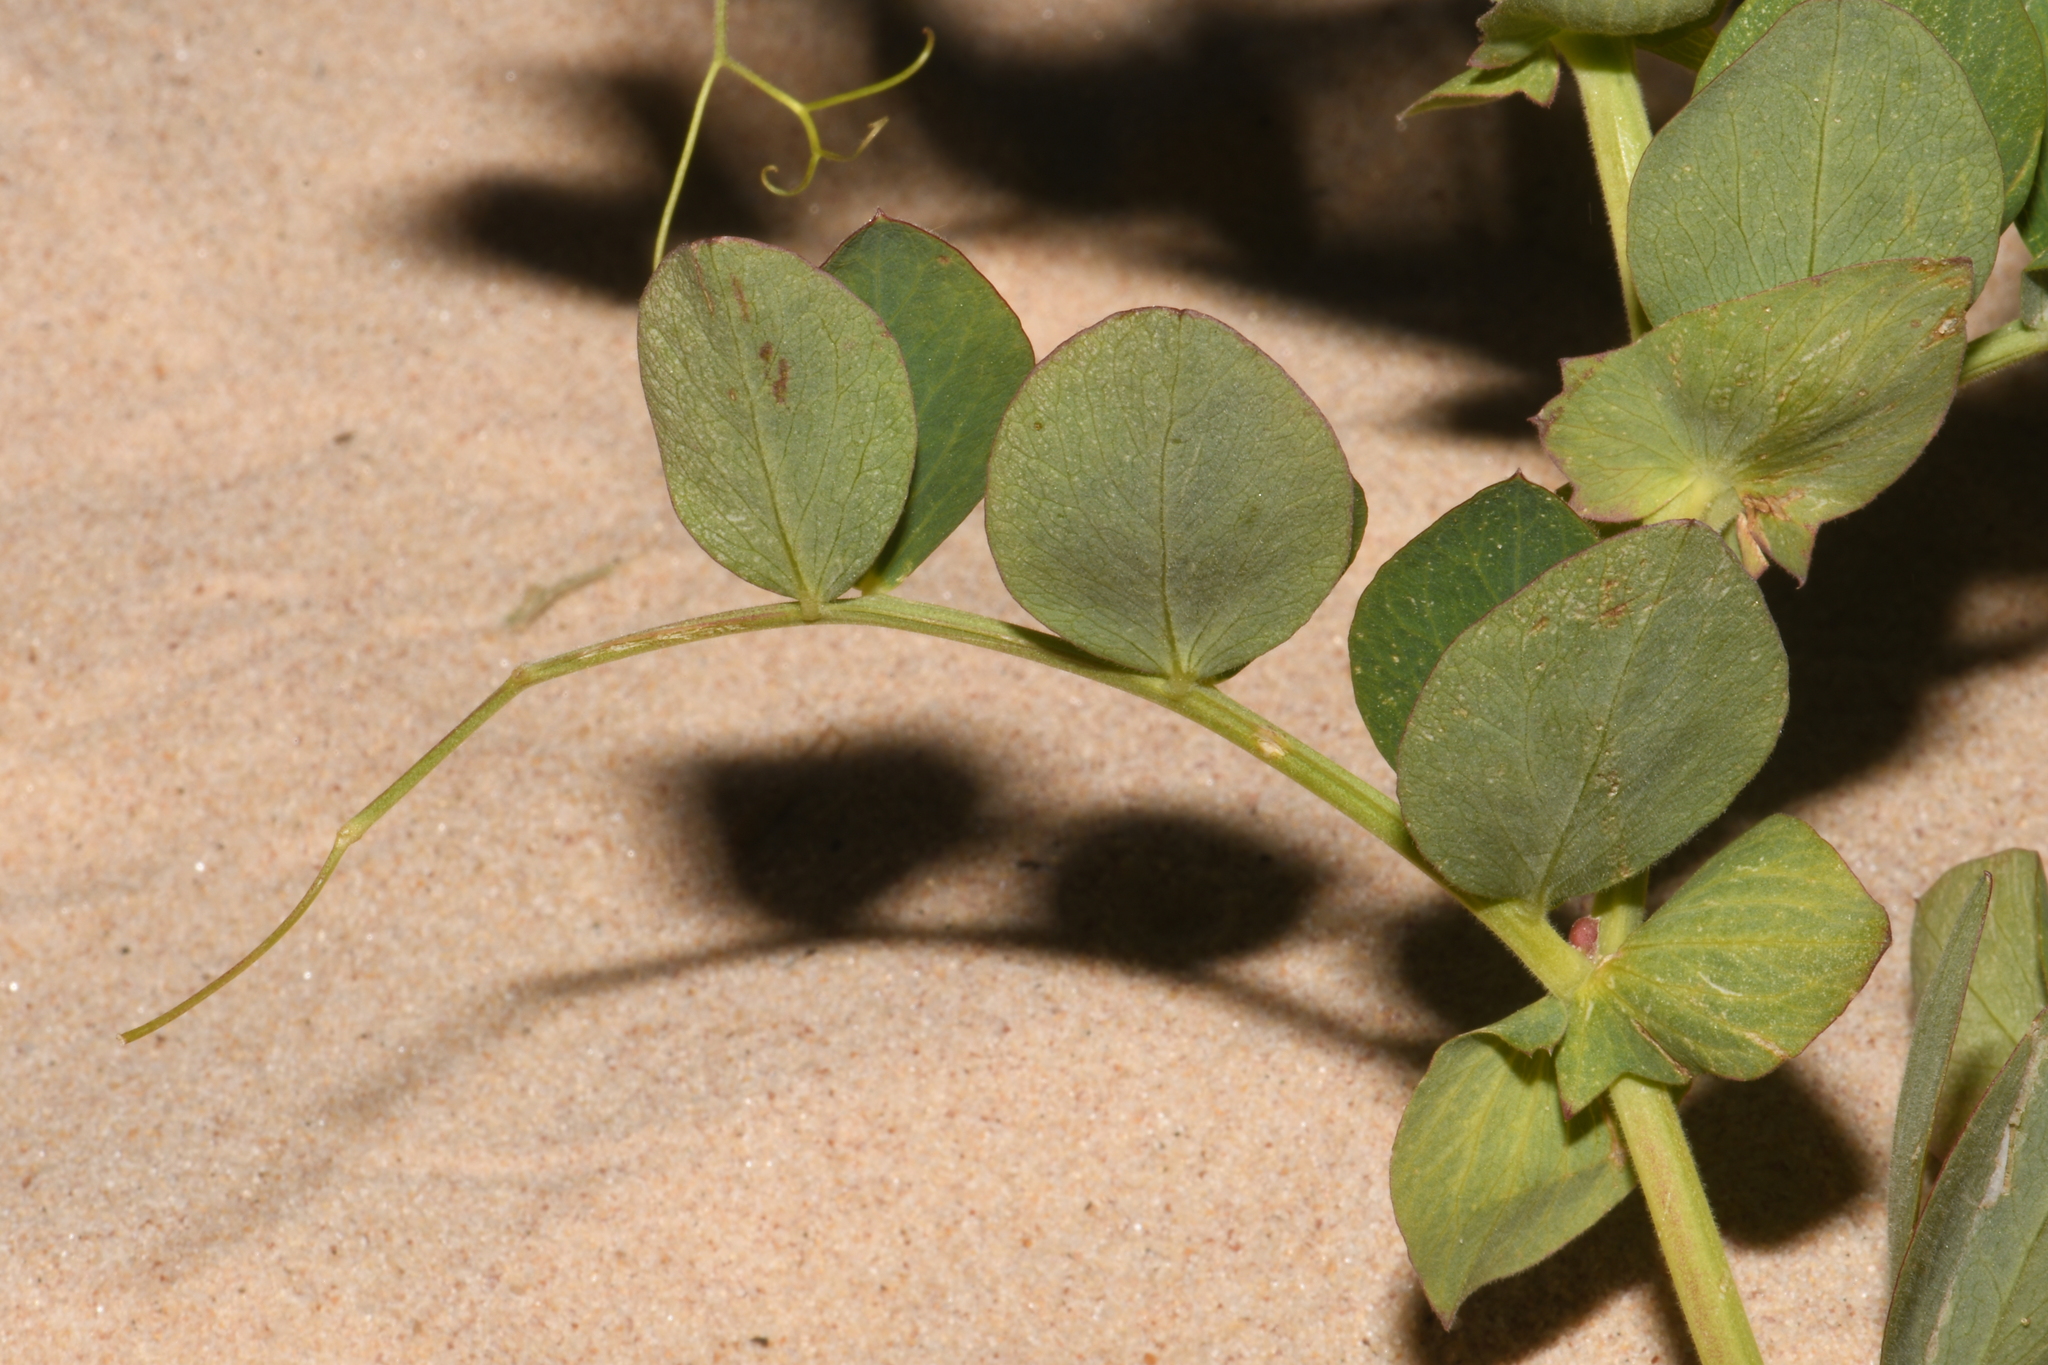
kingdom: Plantae
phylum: Tracheophyta
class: Magnoliopsida
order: Fabales
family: Fabaceae
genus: Lathyrus
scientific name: Lathyrus japonicus
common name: Sea pea
